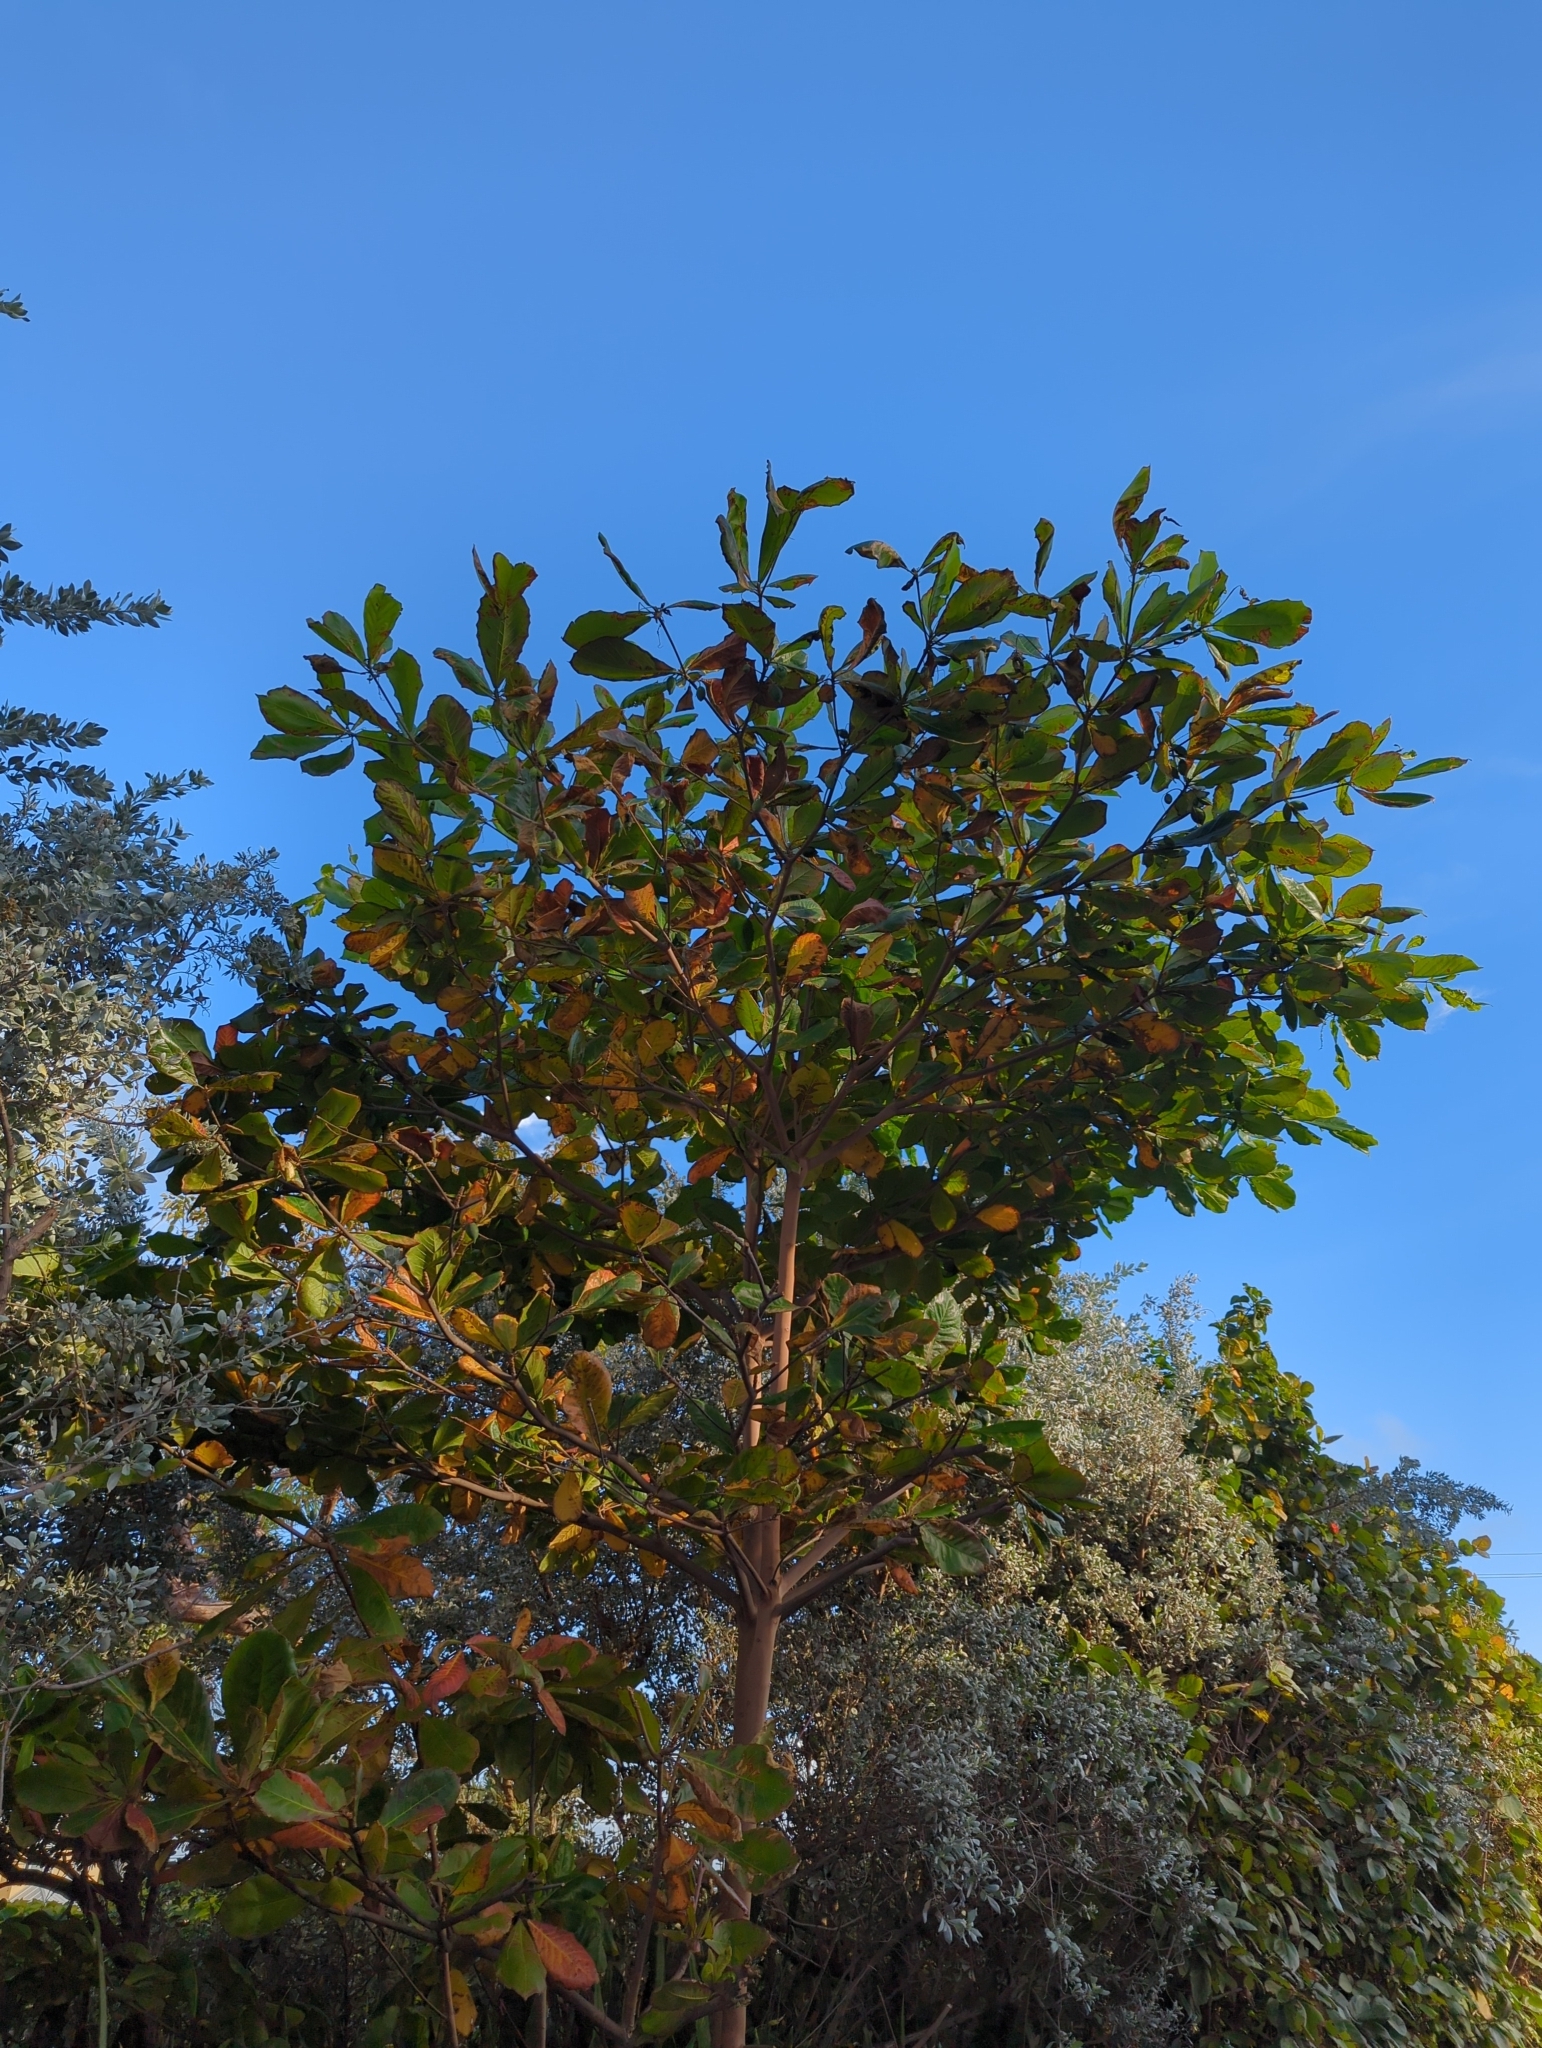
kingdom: Plantae
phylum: Tracheophyta
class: Magnoliopsida
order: Myrtales
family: Combretaceae
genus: Terminalia
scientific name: Terminalia catappa
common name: Tropical almond
